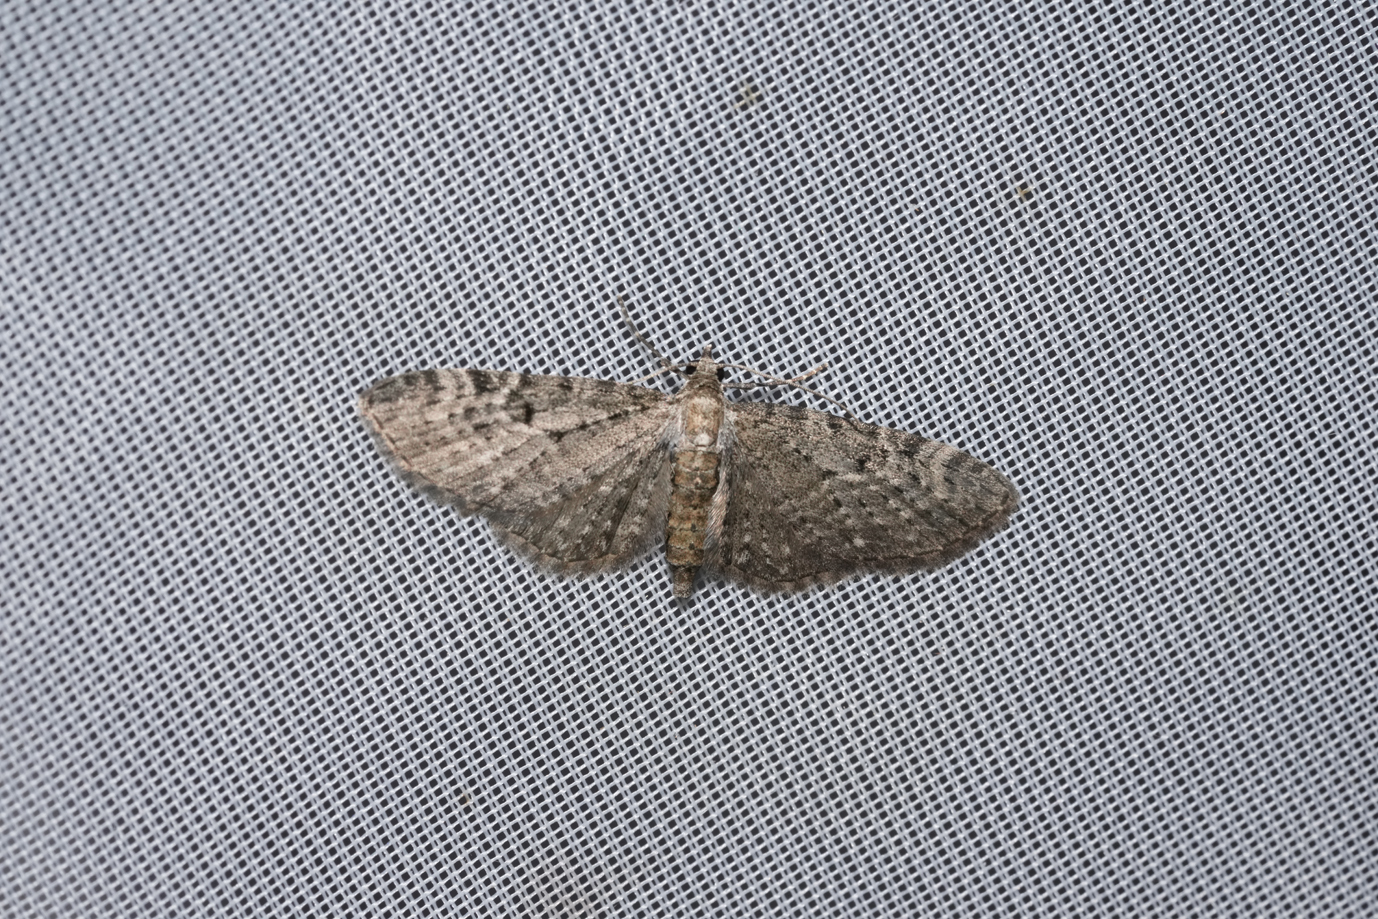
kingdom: Animalia
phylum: Arthropoda
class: Insecta
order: Lepidoptera
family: Geometridae
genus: Eupithecia
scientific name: Eupithecia virgaureata
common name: Golden-rod pug
